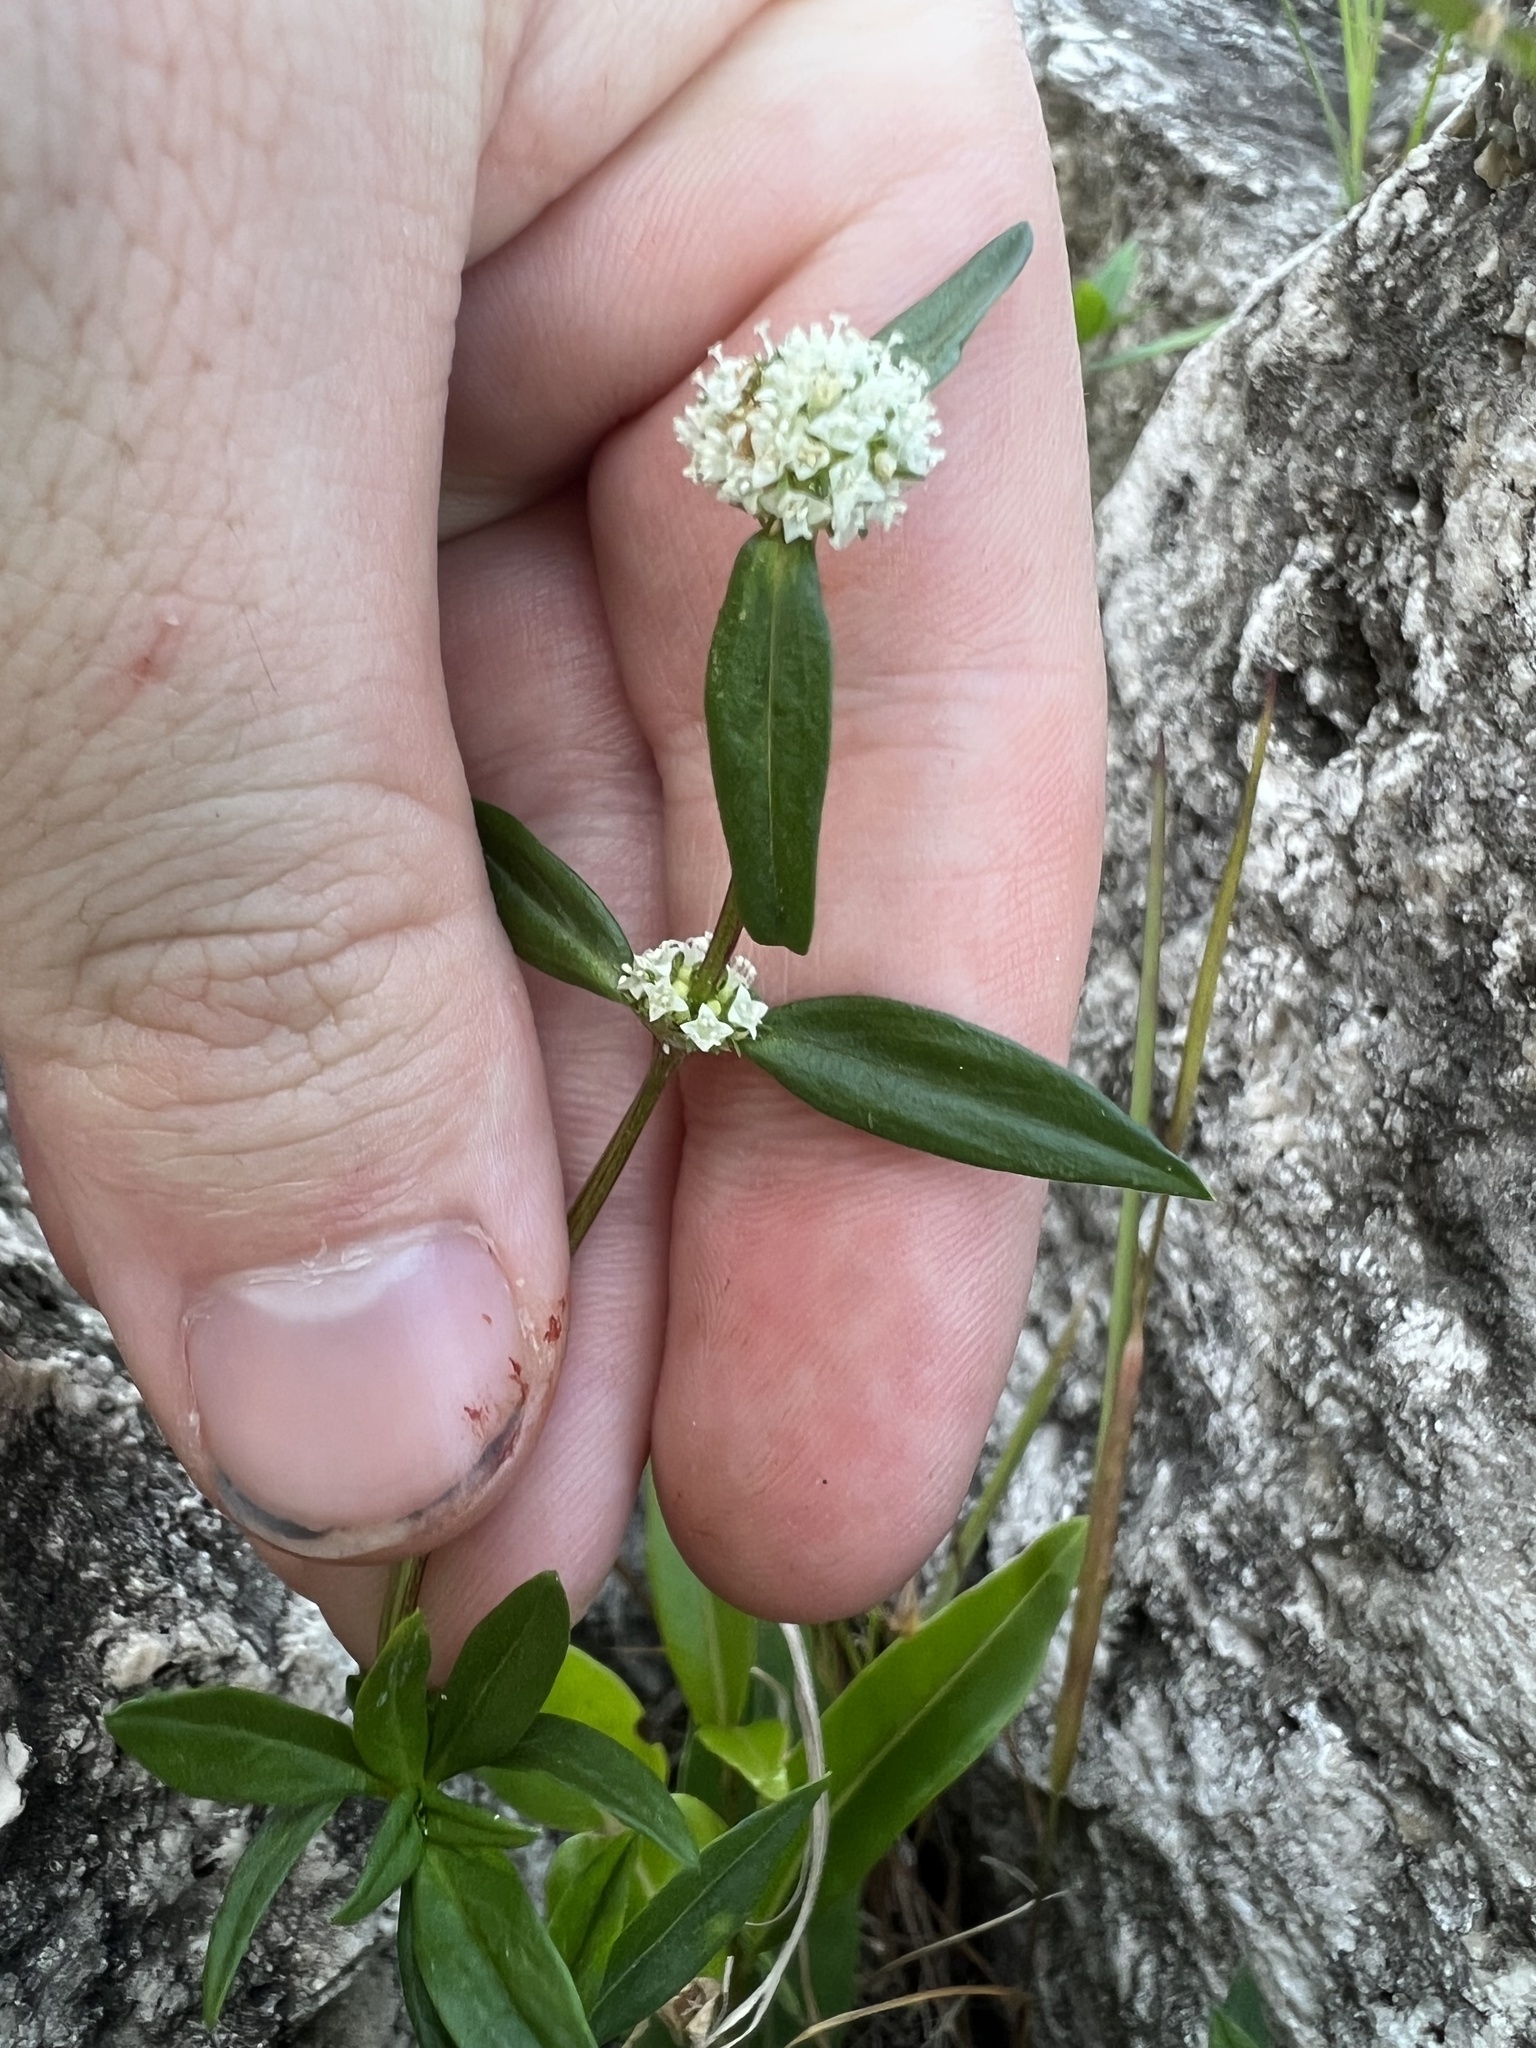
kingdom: Plantae
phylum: Tracheophyta
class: Magnoliopsida
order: Gentianales
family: Rubiaceae
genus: Spermacoce
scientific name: Spermacoce verticillata
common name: Shrubby false buttonweed
